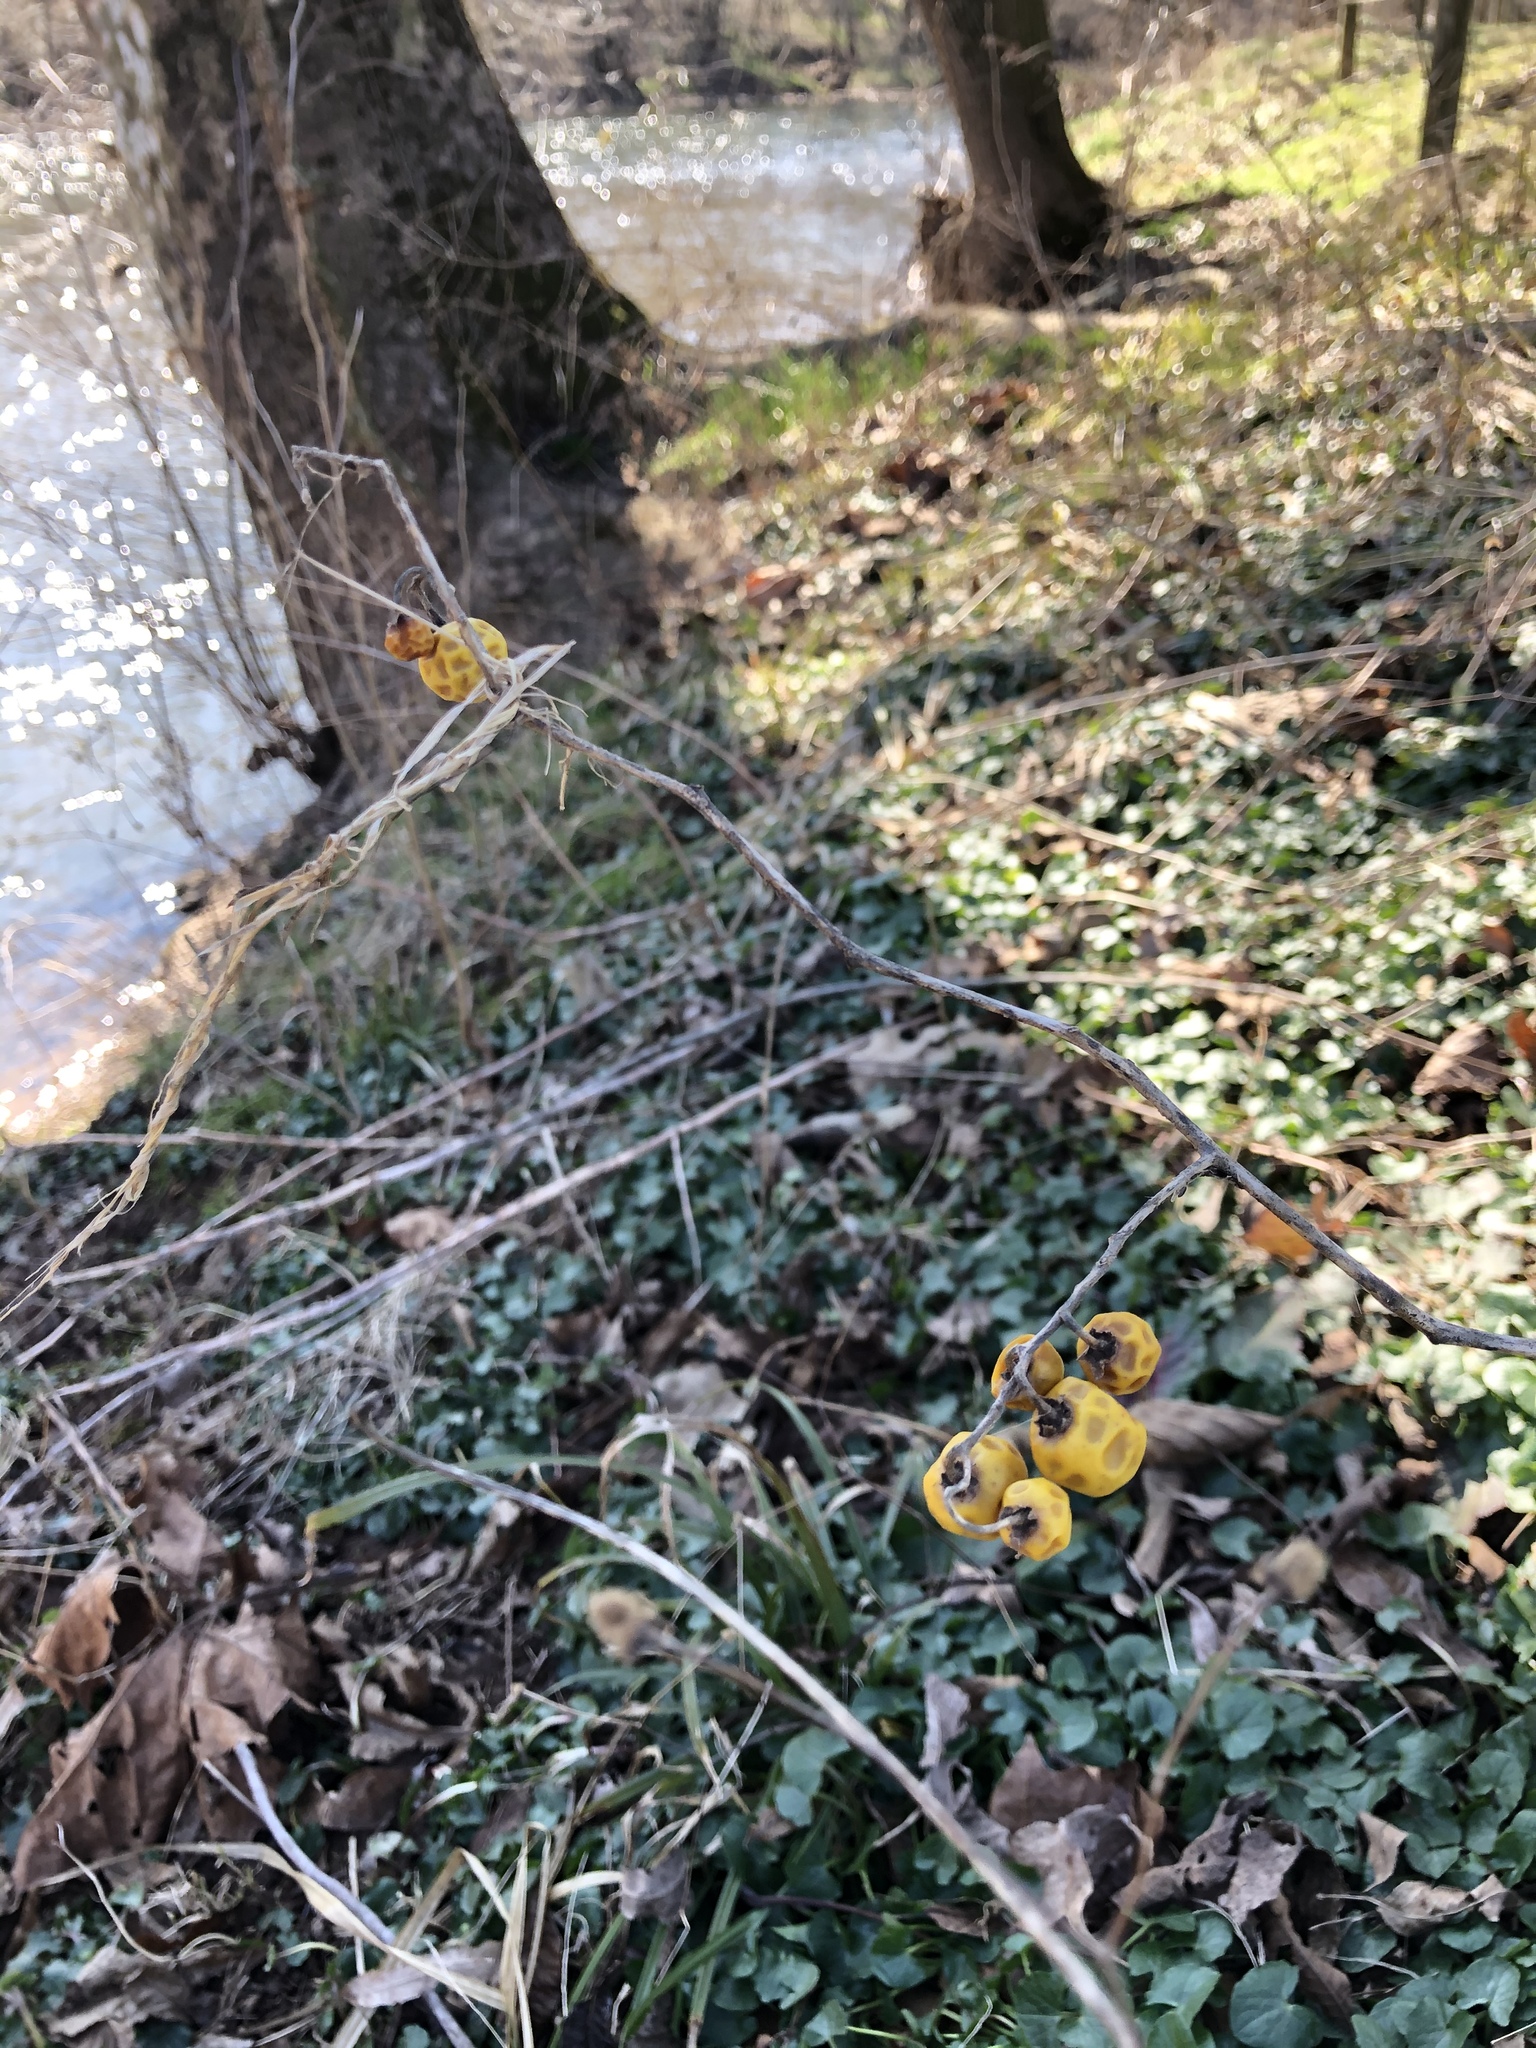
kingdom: Plantae
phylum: Tracheophyta
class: Magnoliopsida
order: Solanales
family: Solanaceae
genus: Solanum
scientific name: Solanum carolinense
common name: Horse-nettle
